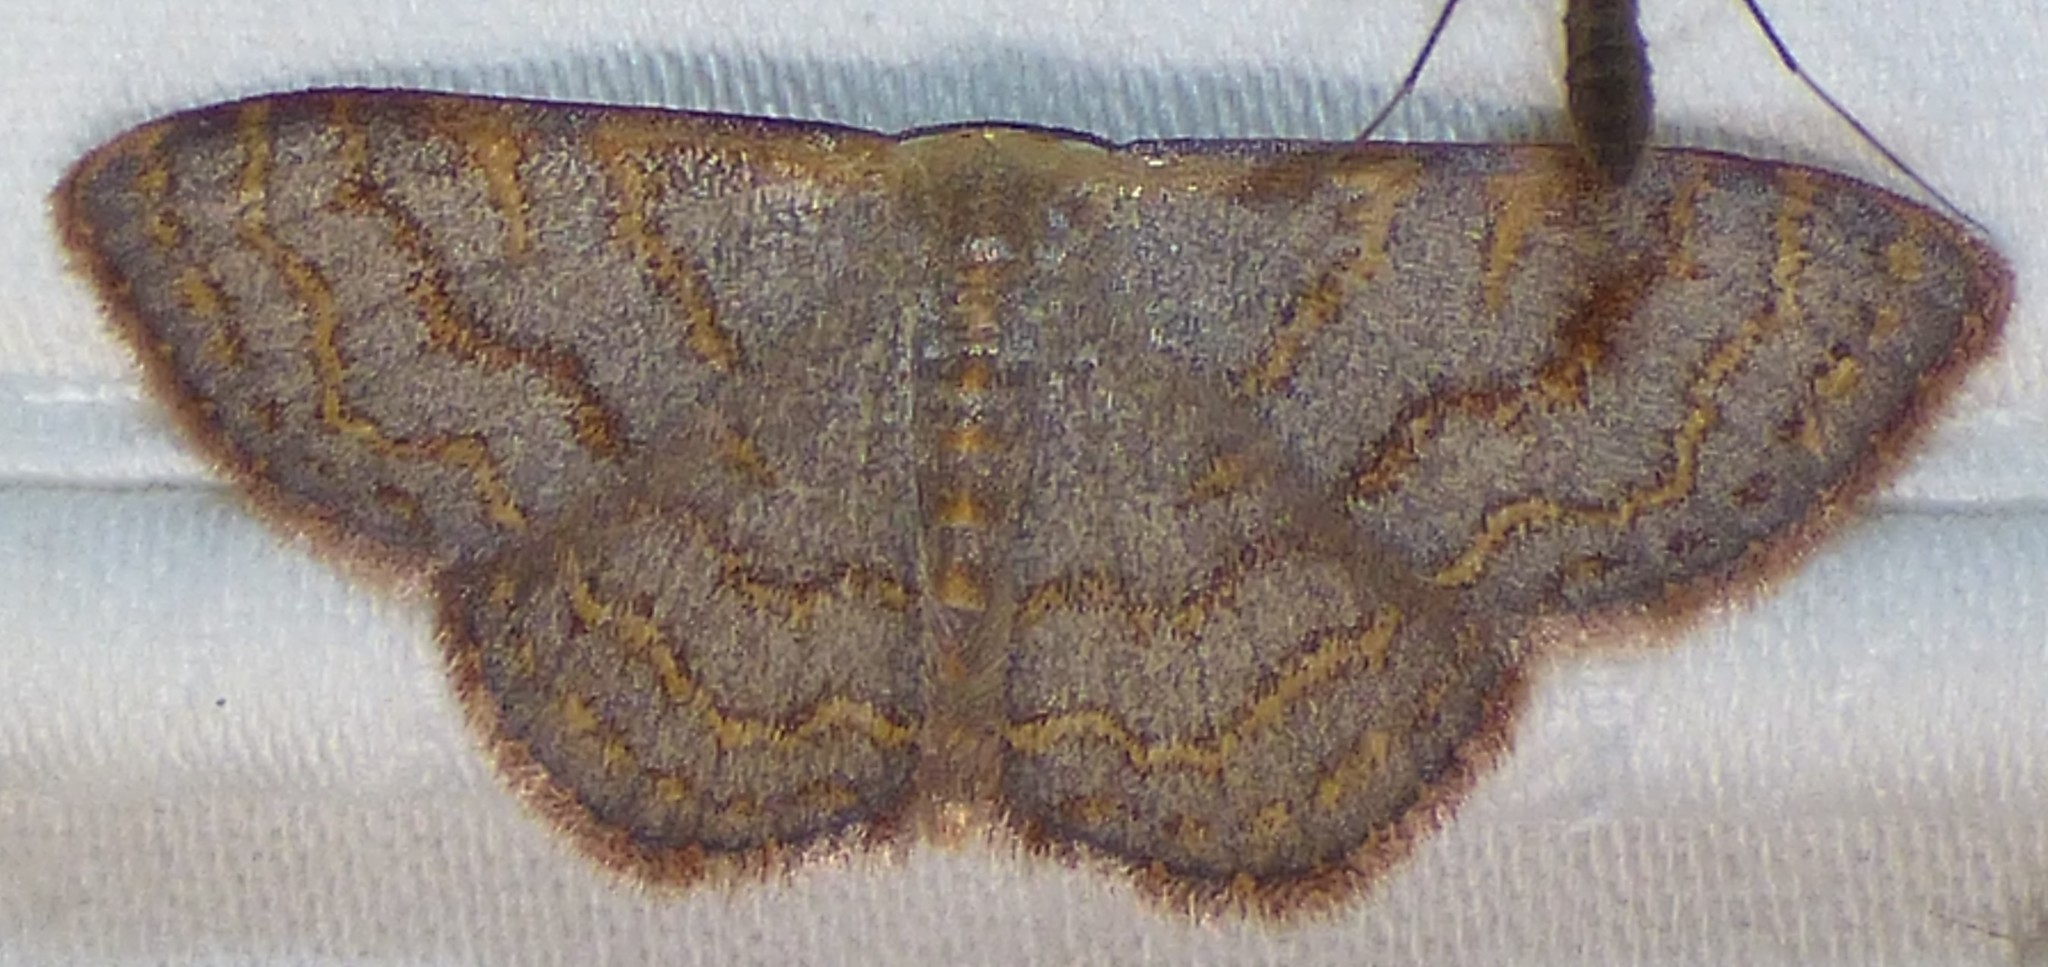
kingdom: Animalia
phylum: Arthropoda
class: Insecta
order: Lepidoptera
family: Geometridae
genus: Leptostales
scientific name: Leptostales pannaria
